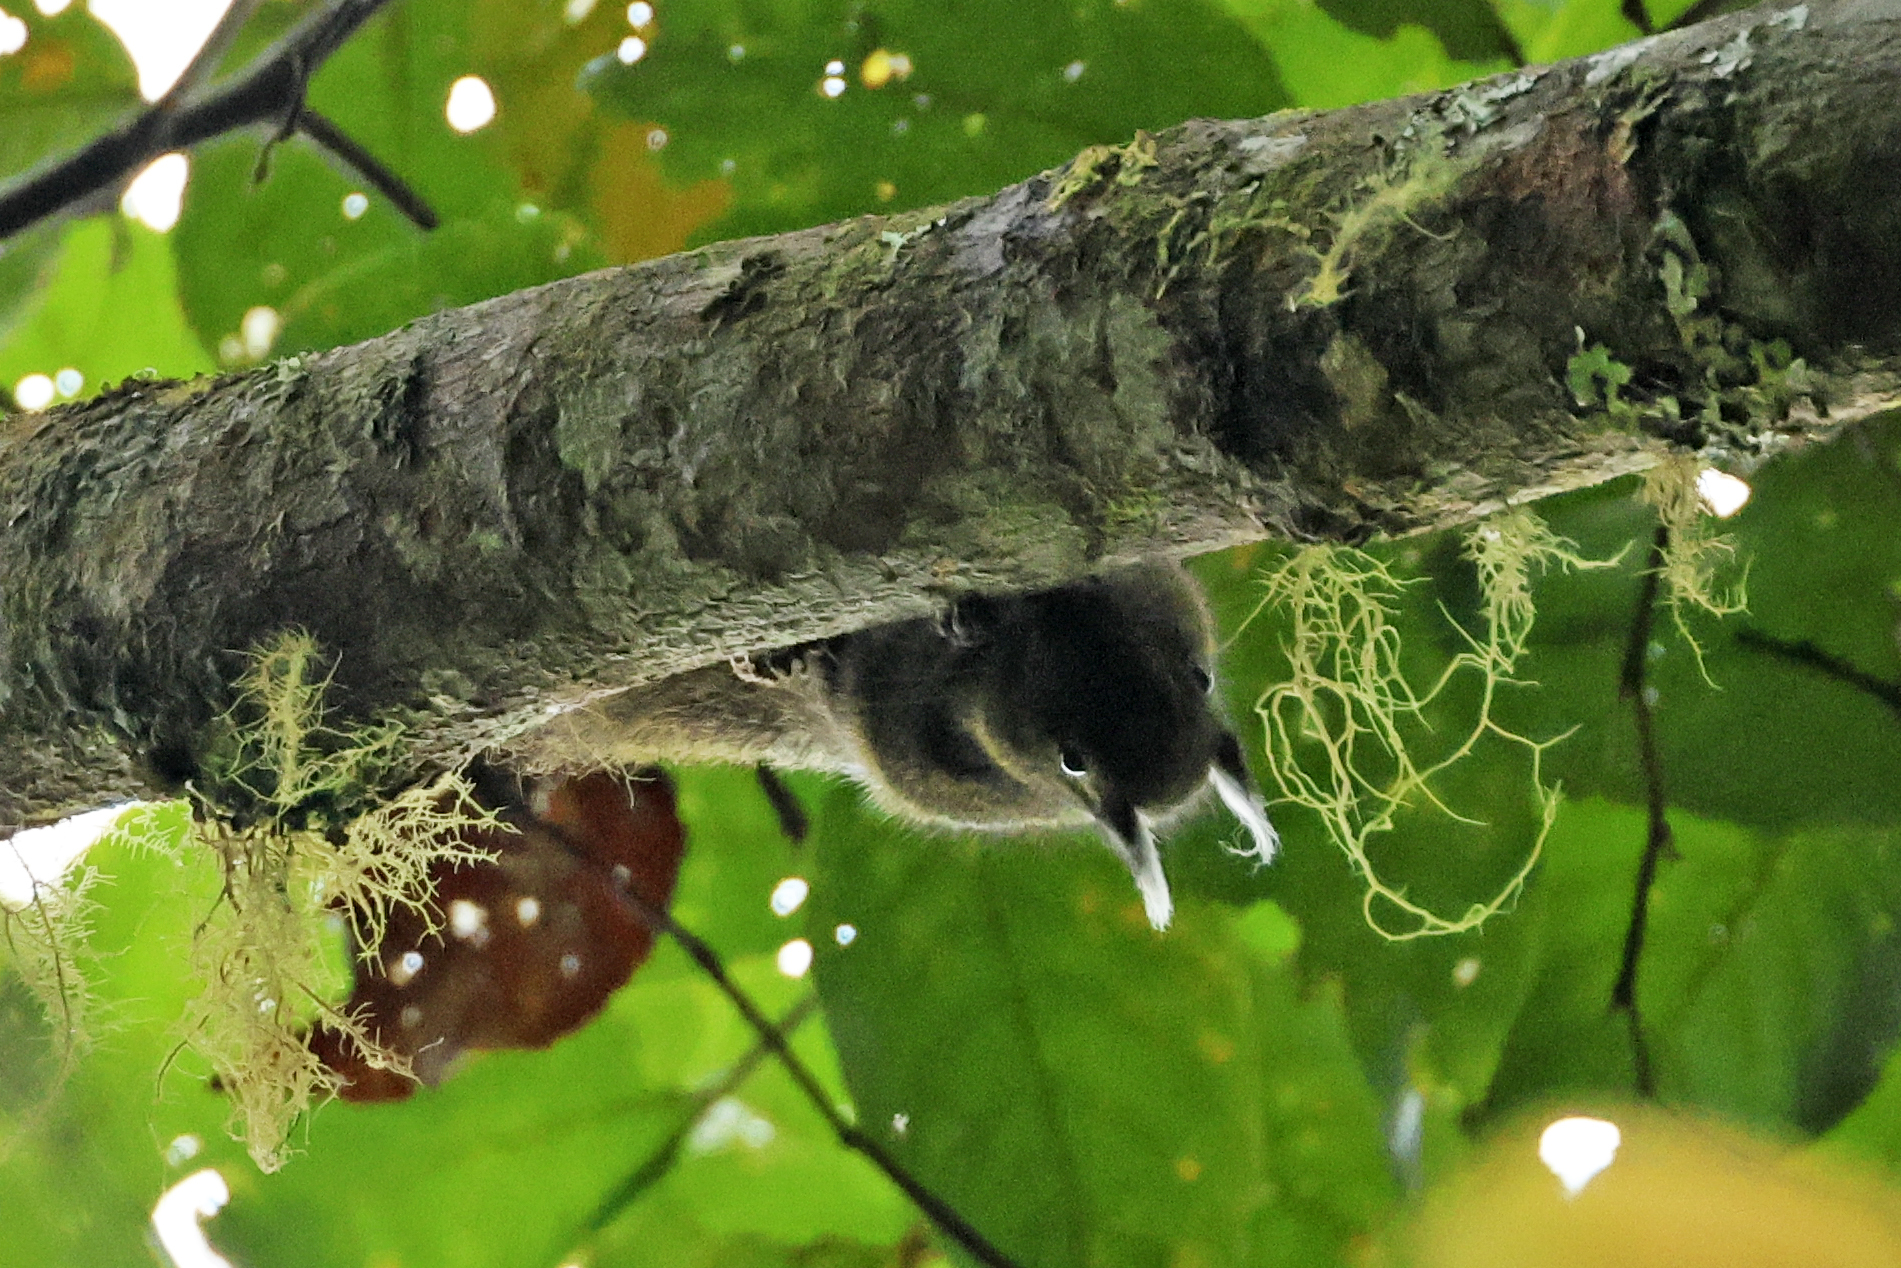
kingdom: Animalia
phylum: Chordata
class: Mammalia
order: Rodentia
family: Sciuridae
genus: Exilisciurus
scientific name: Exilisciurus whiteheadi
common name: Tufted pygmy squirrel
